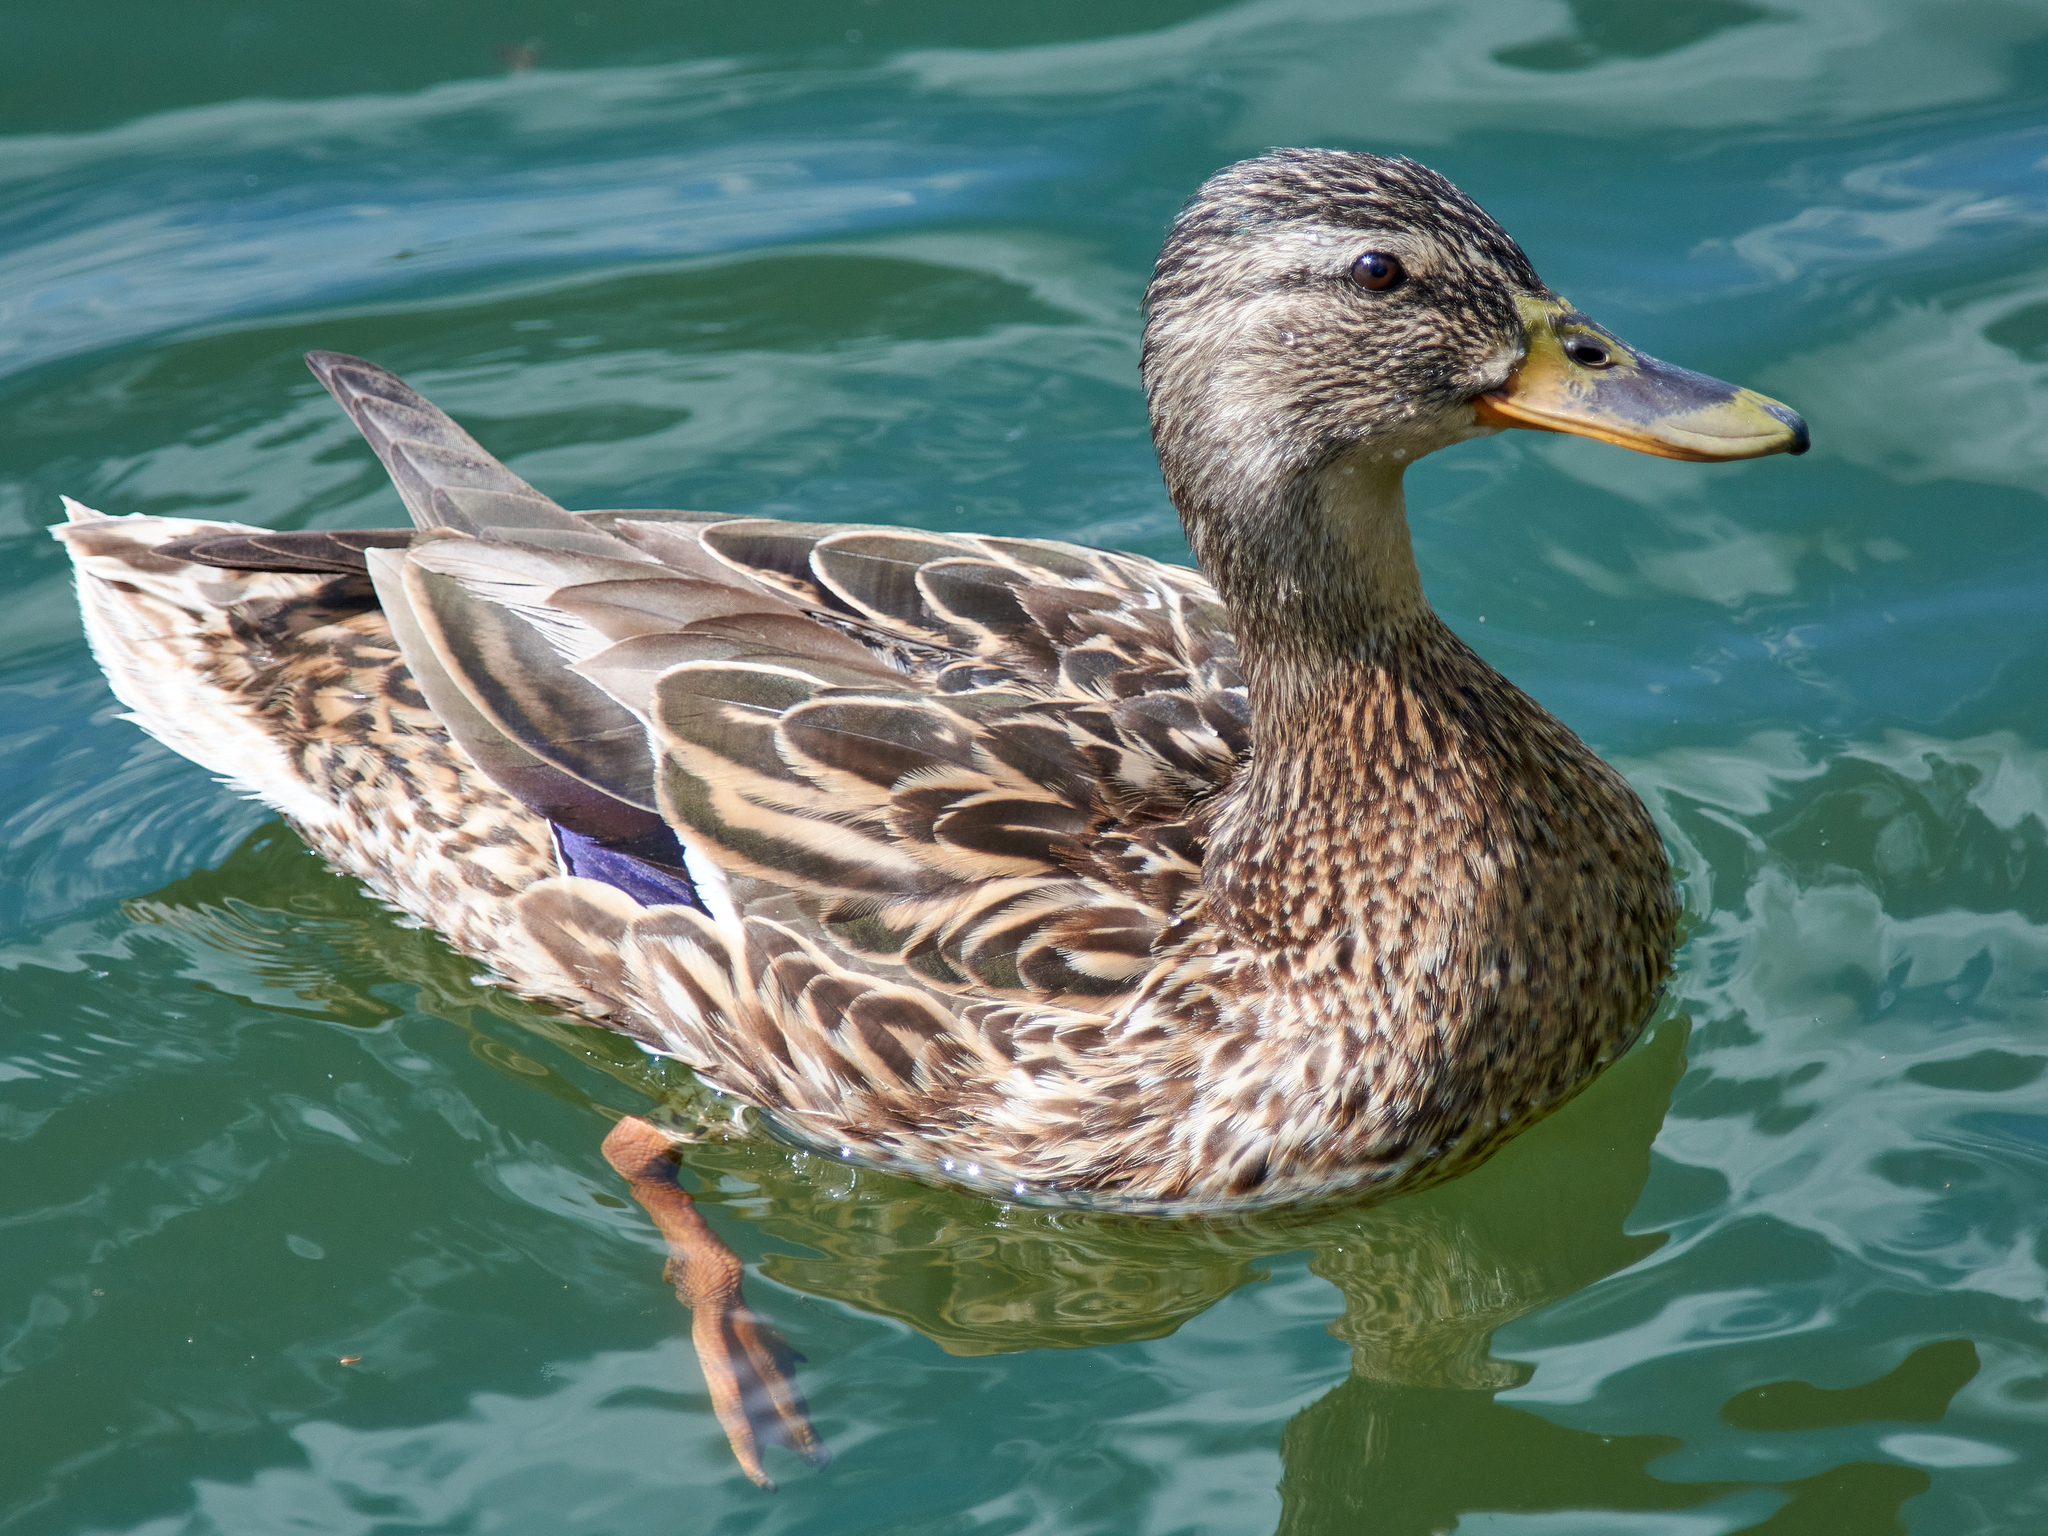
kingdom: Animalia
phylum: Chordata
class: Aves
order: Anseriformes
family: Anatidae
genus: Anas
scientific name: Anas platyrhynchos
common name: Mallard
